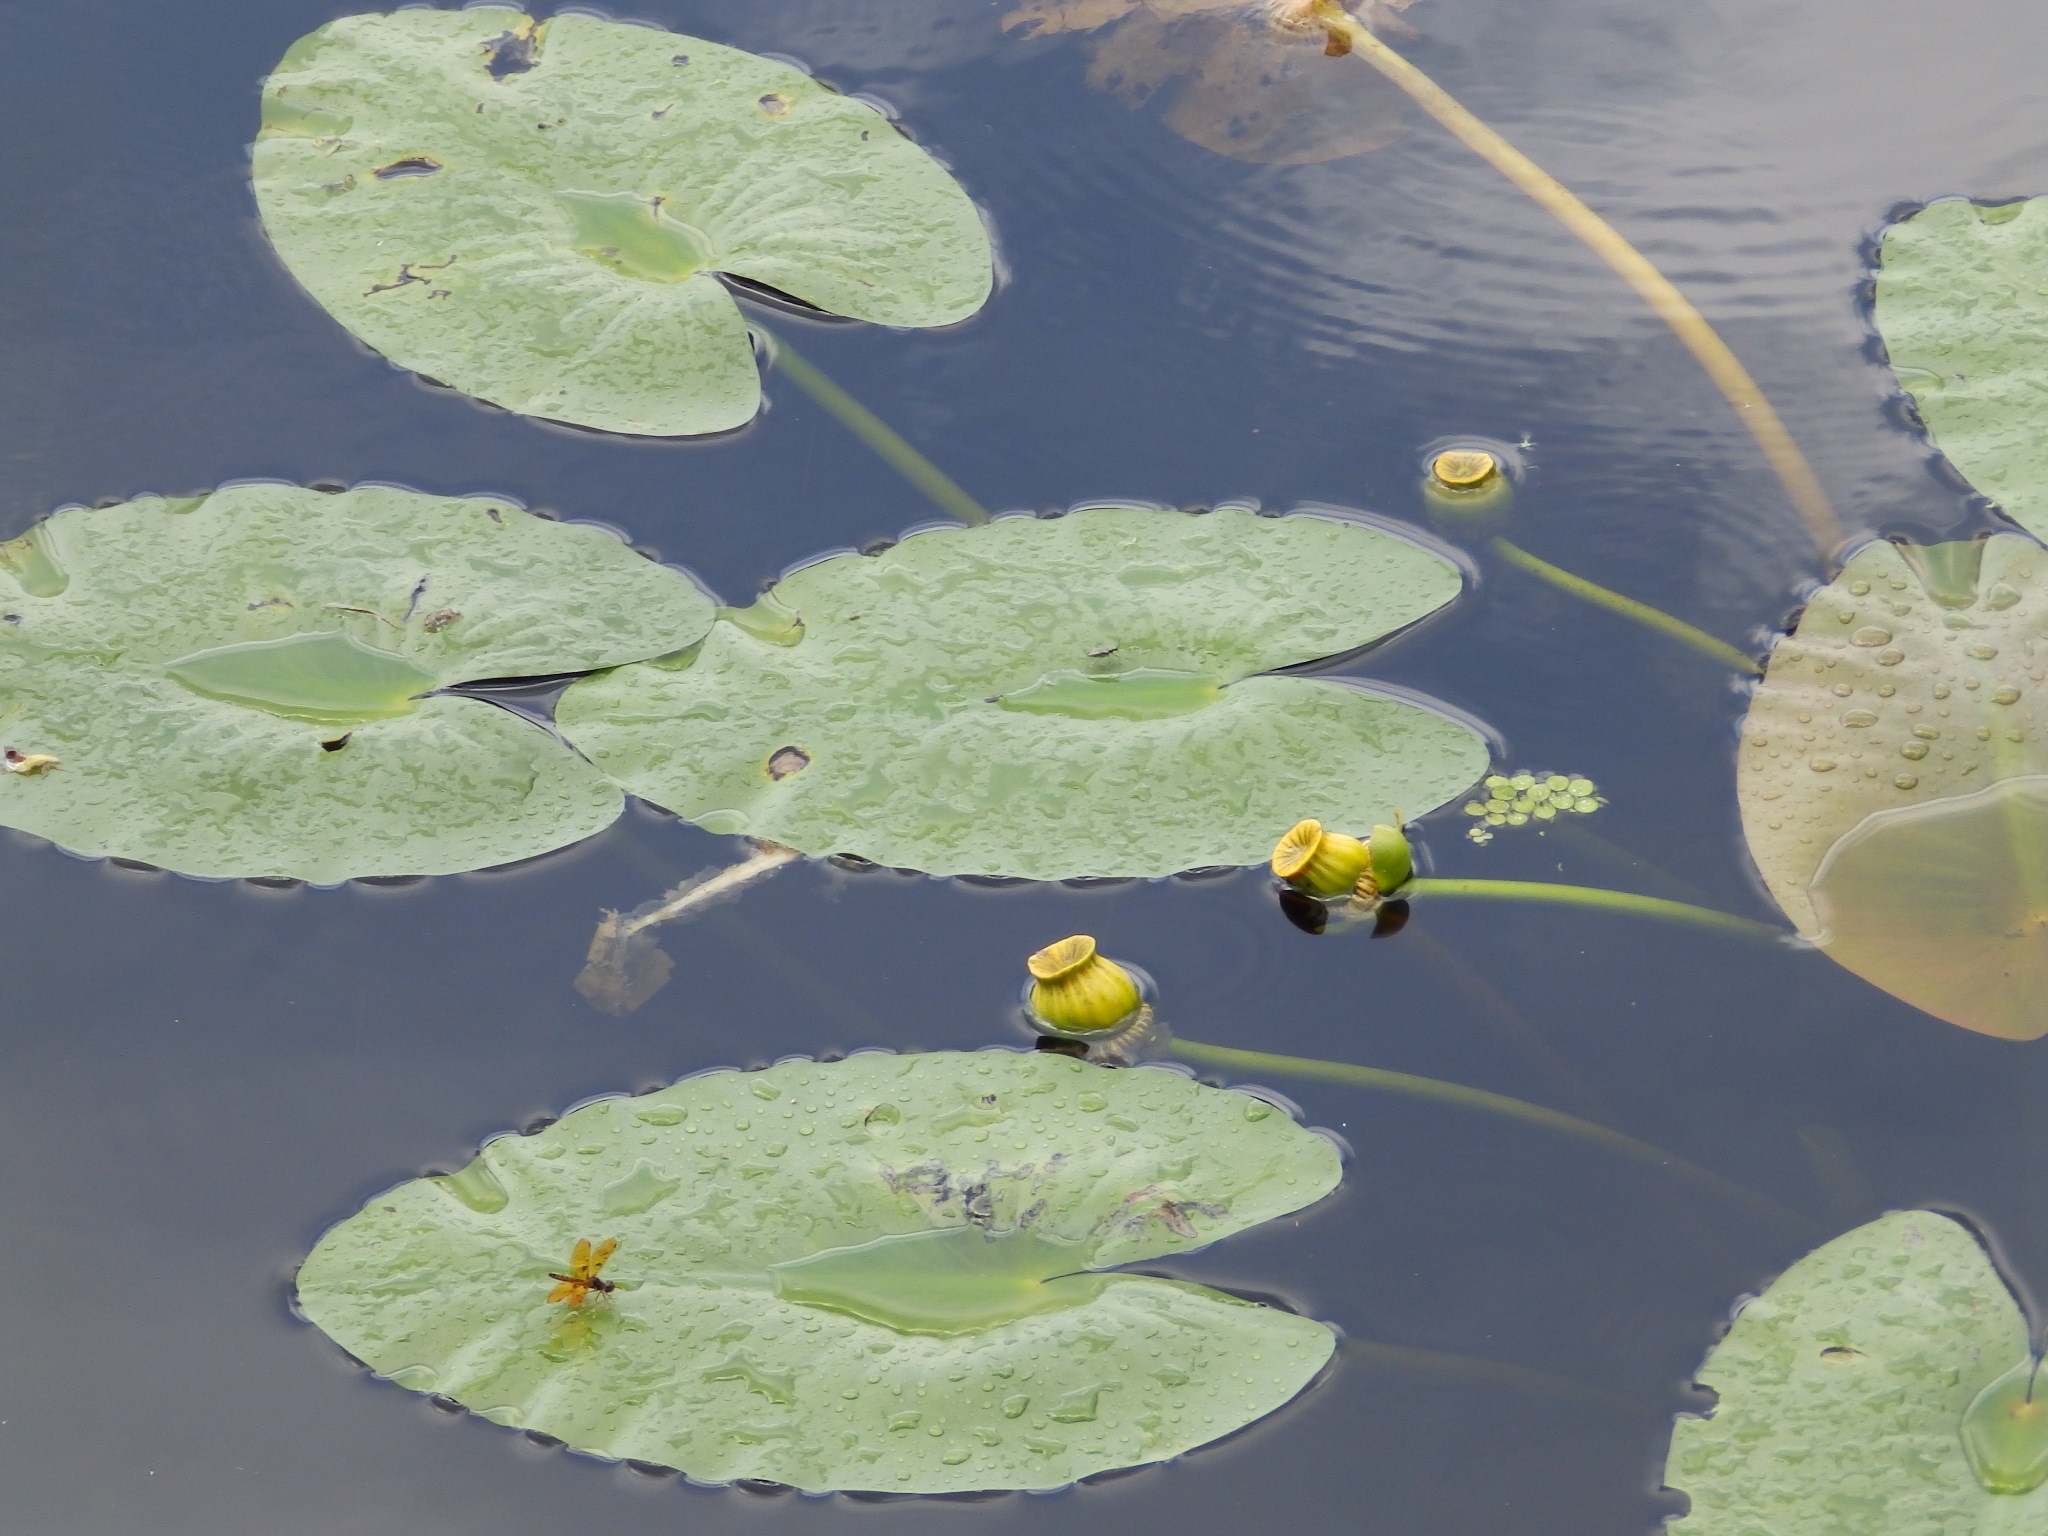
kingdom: Plantae
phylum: Tracheophyta
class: Magnoliopsida
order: Nymphaeales
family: Nymphaeaceae
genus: Nuphar
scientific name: Nuphar advena
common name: Spatter-dock
